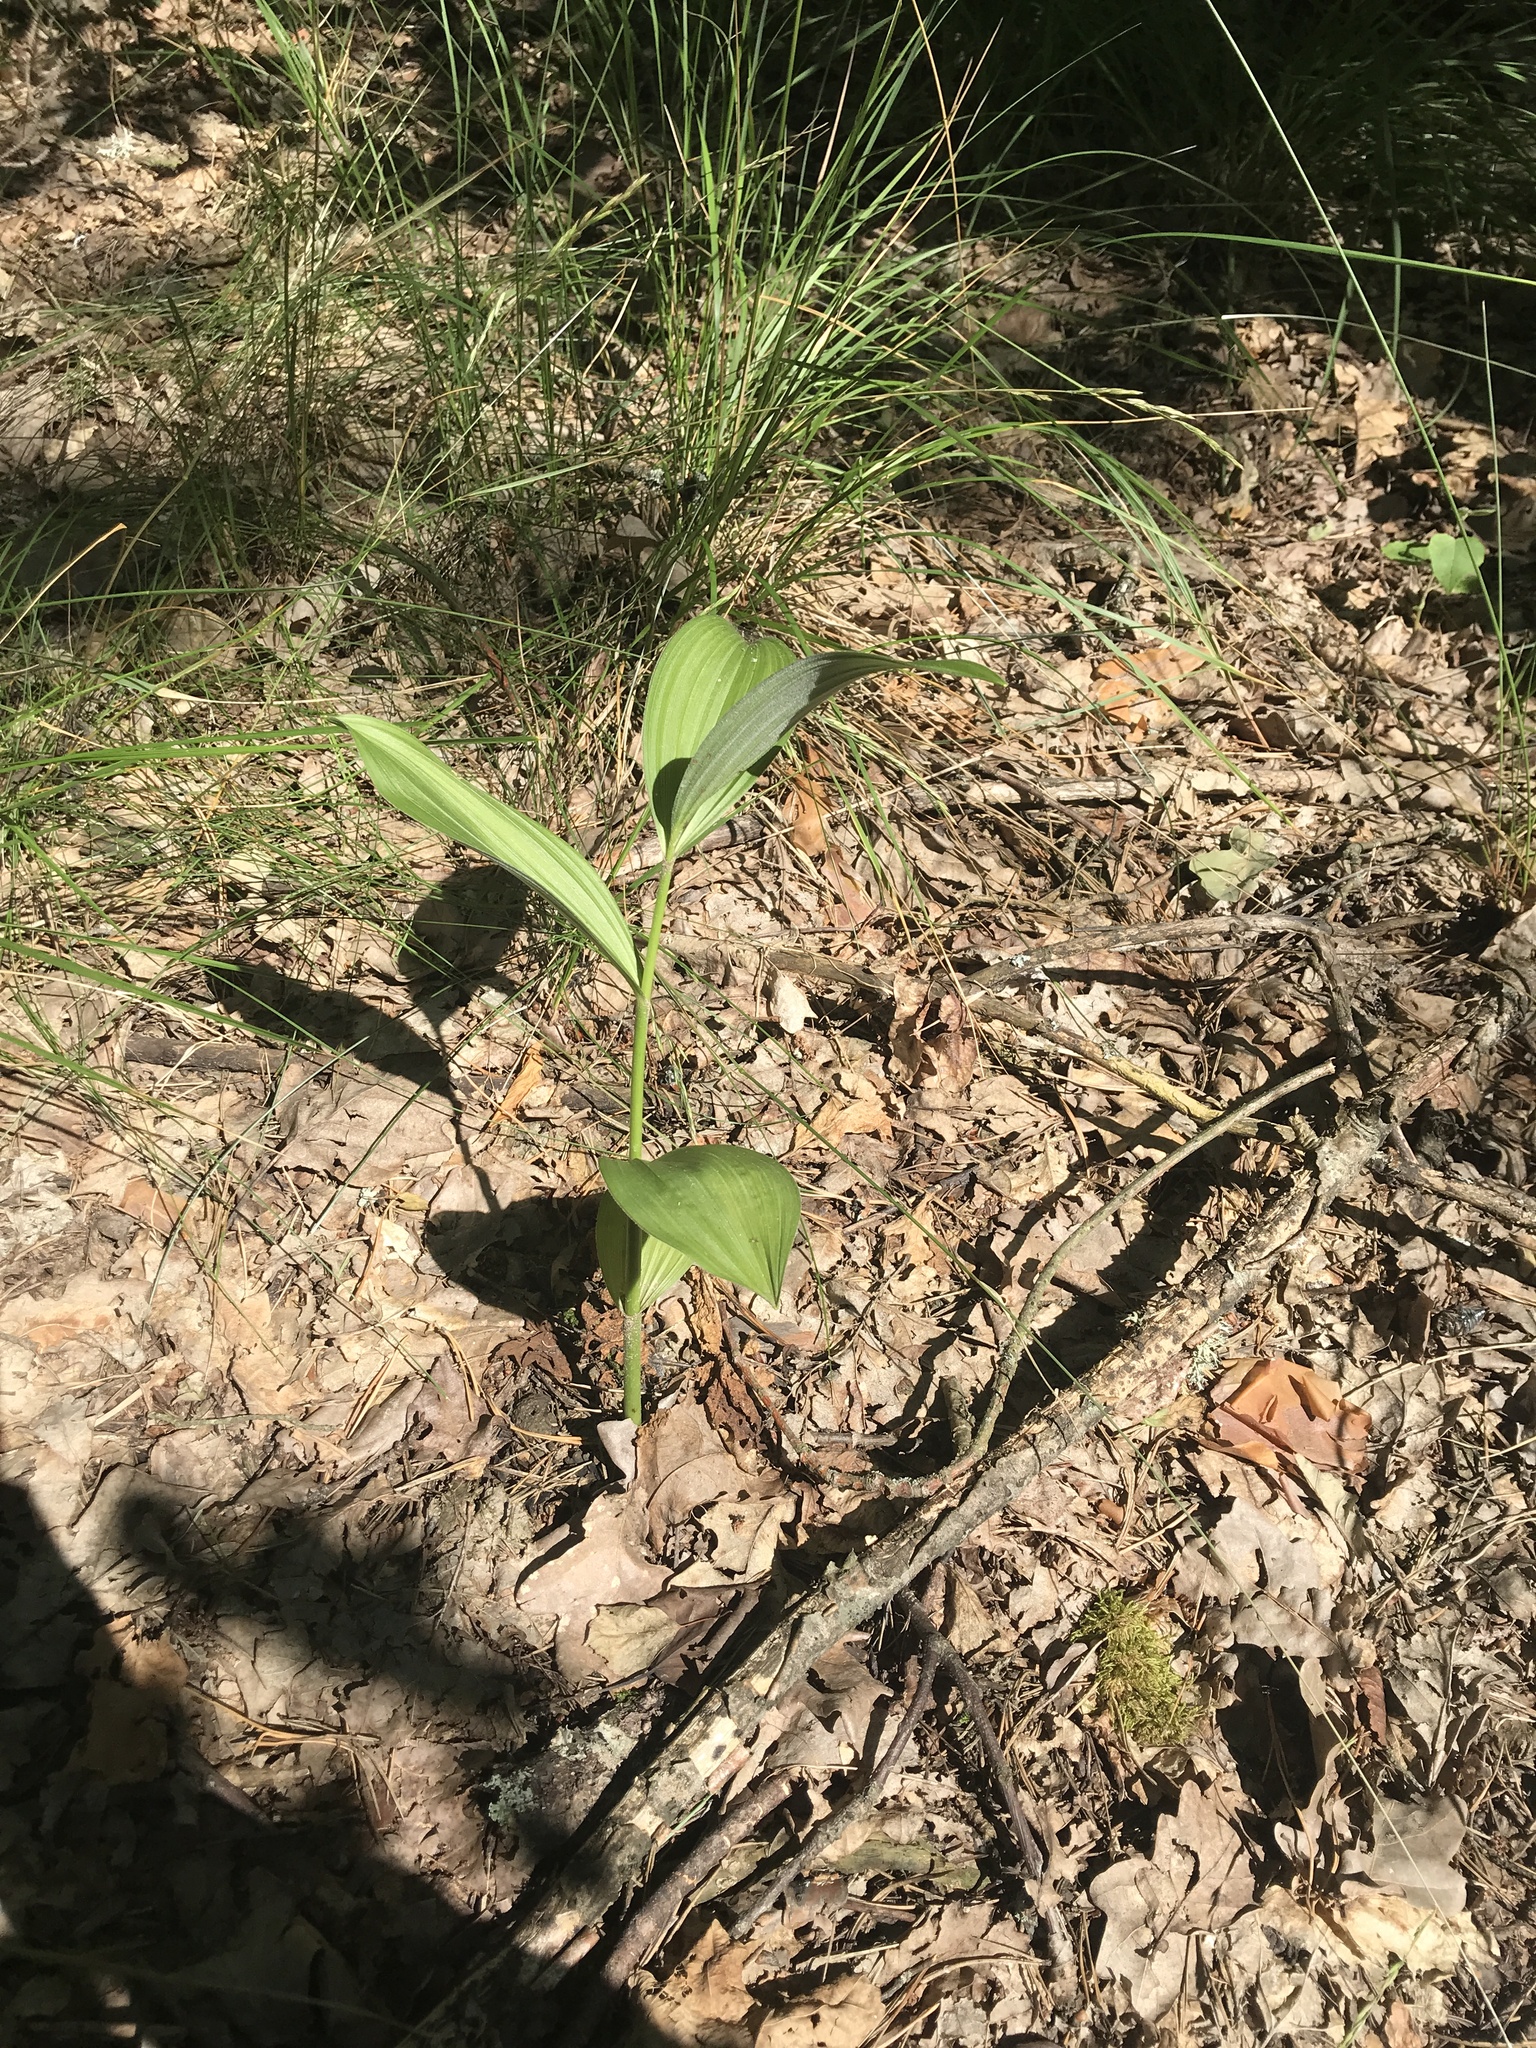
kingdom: Plantae
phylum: Tracheophyta
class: Liliopsida
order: Liliales
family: Melanthiaceae
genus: Veratrum
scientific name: Veratrum lobelianum
